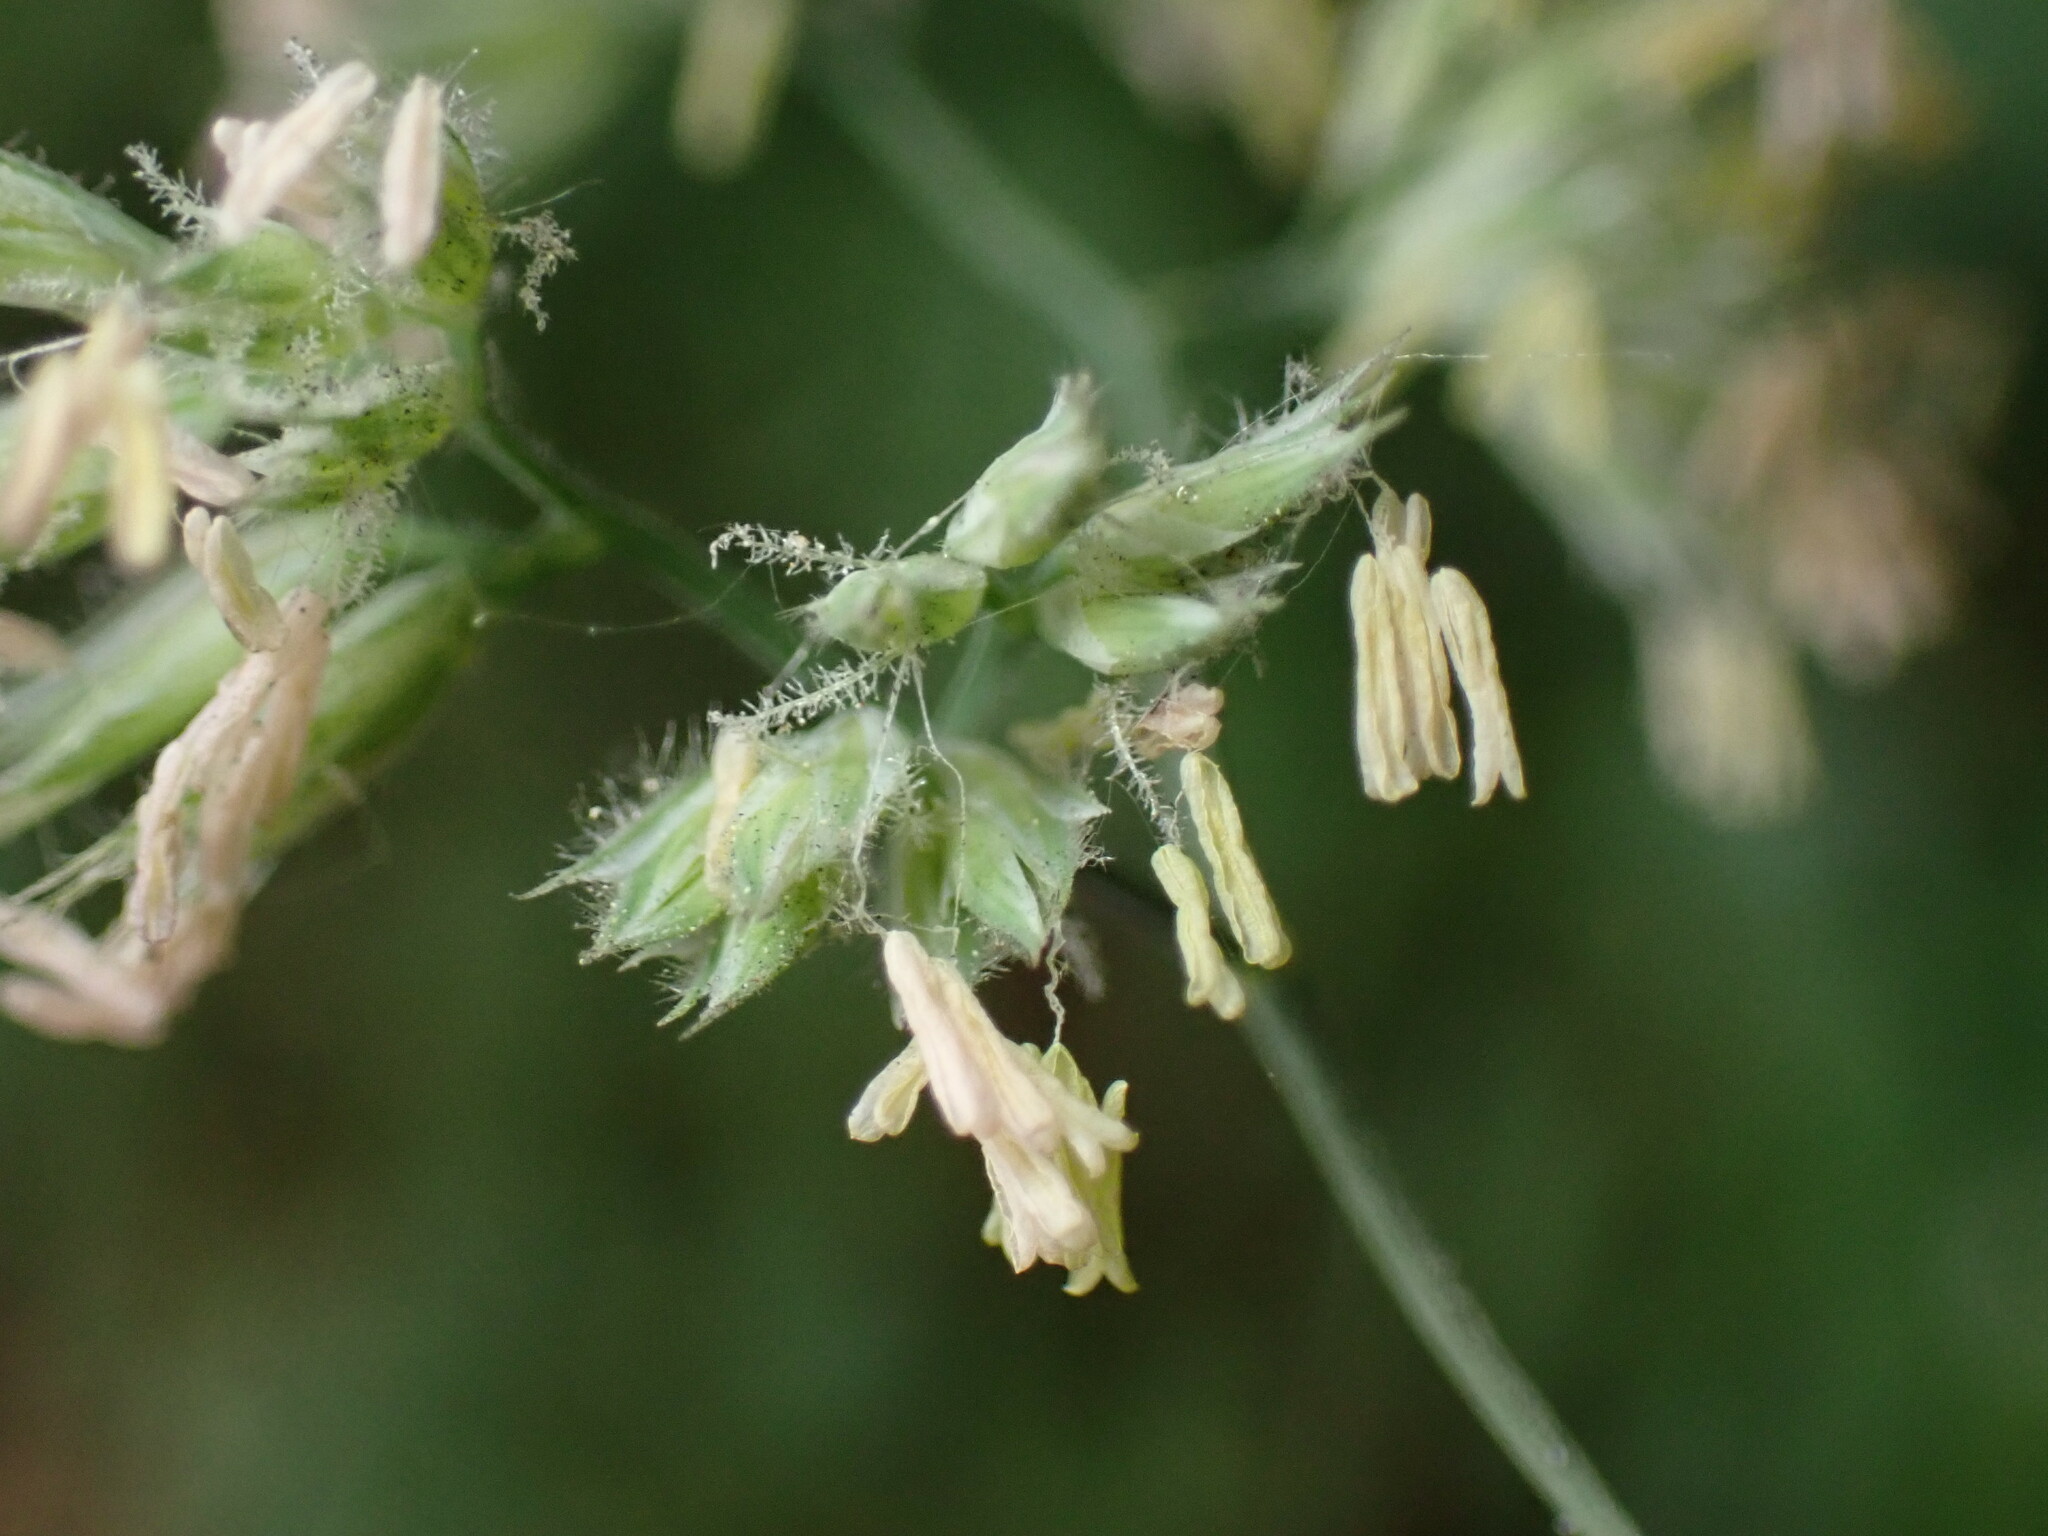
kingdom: Plantae
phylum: Tracheophyta
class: Liliopsida
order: Poales
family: Poaceae
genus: Dactylis
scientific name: Dactylis glomerata
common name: Orchardgrass
